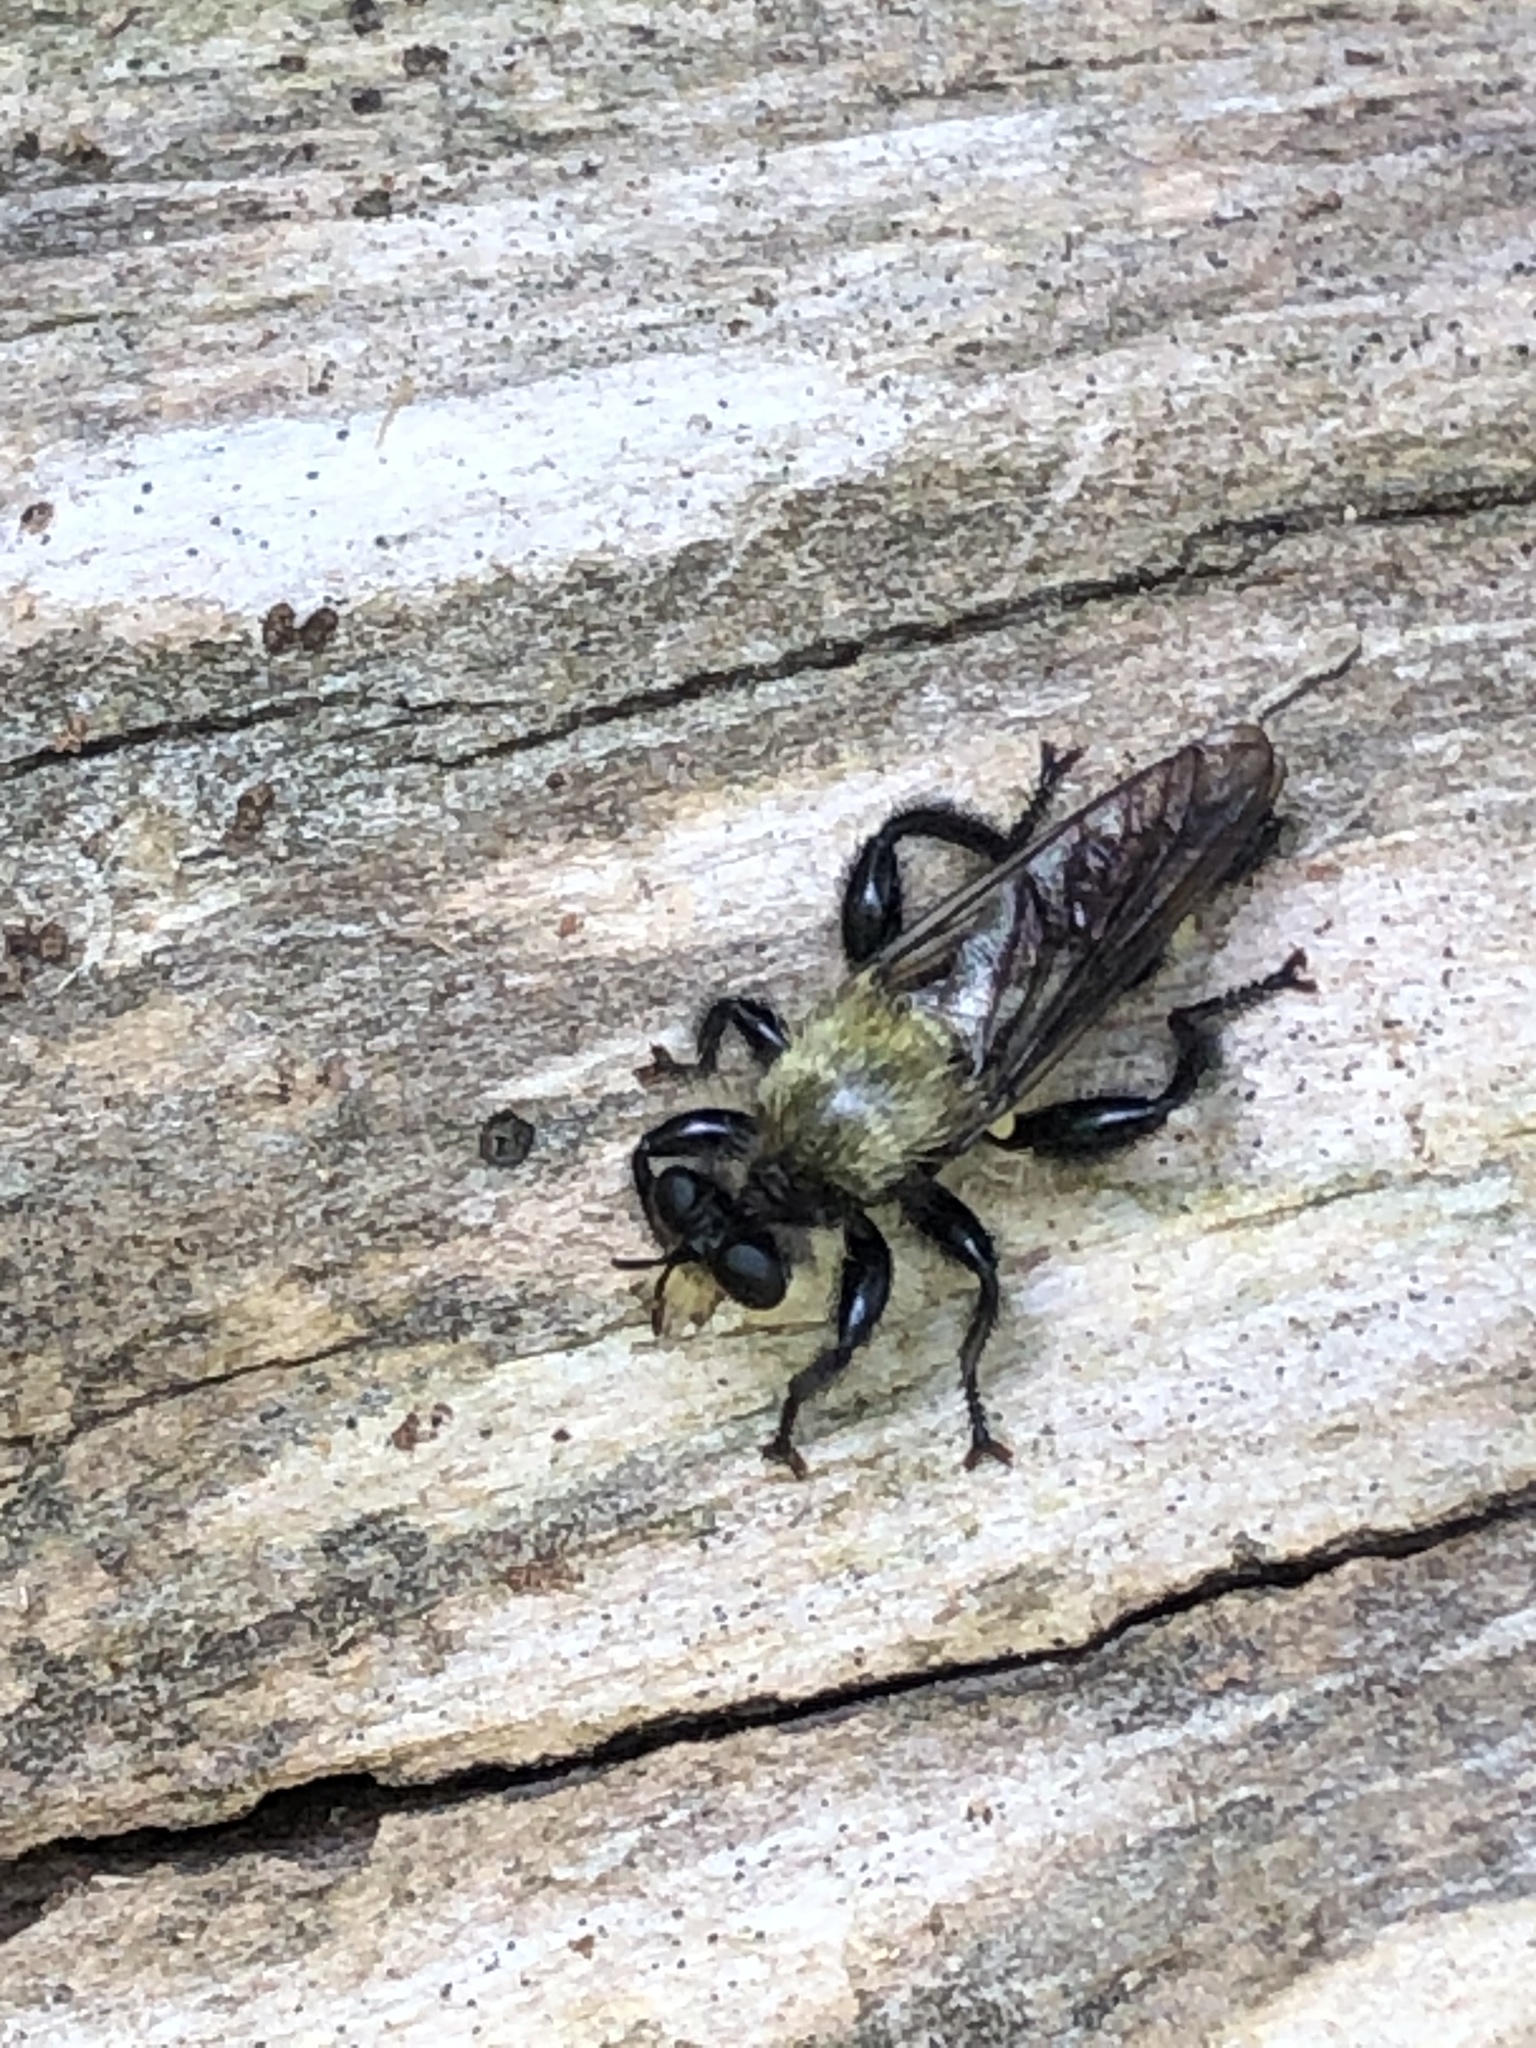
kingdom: Animalia
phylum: Arthropoda
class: Insecta
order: Diptera
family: Asilidae
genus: Laphria
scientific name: Laphria divisor
